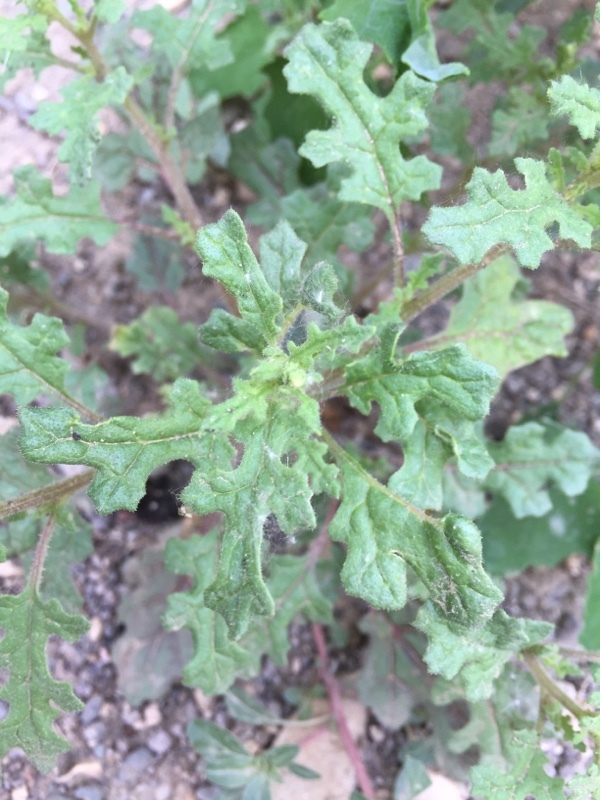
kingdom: Plantae
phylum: Tracheophyta
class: Magnoliopsida
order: Caryophyllales
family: Amaranthaceae
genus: Dysphania
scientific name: Dysphania botrys
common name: Feather-geranium
